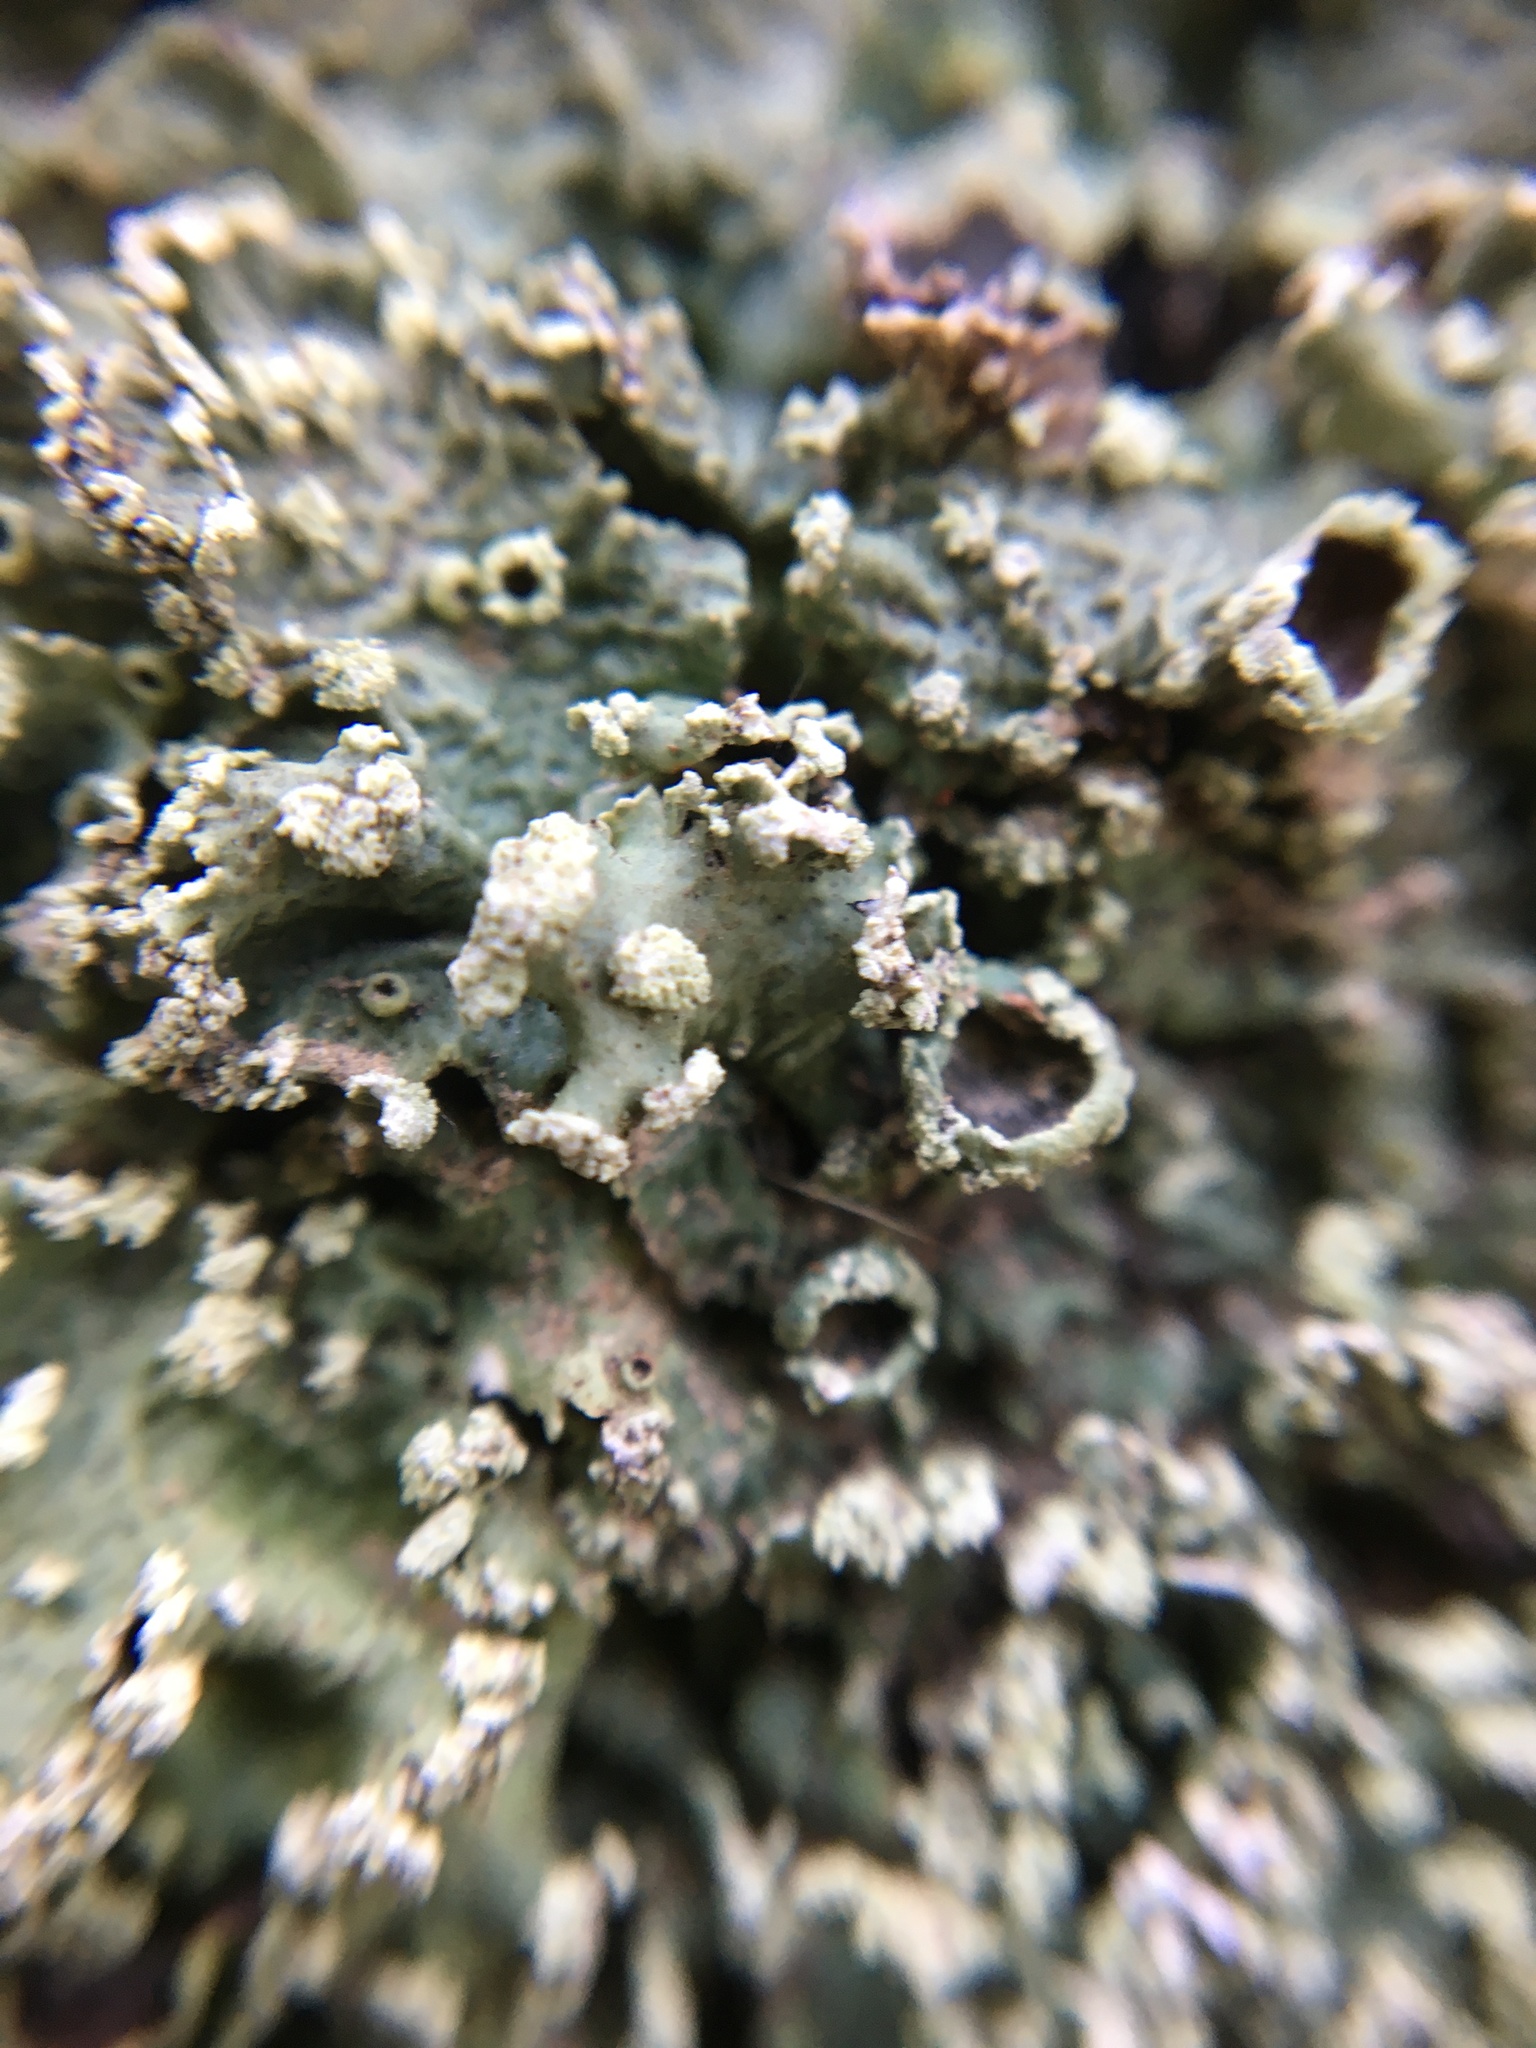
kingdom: Fungi
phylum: Ascomycota
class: Lecanoromycetes
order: Lecanorales
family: Parmeliaceae
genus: Flavopunctelia
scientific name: Flavopunctelia flaventior
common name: Speckled greenshield
